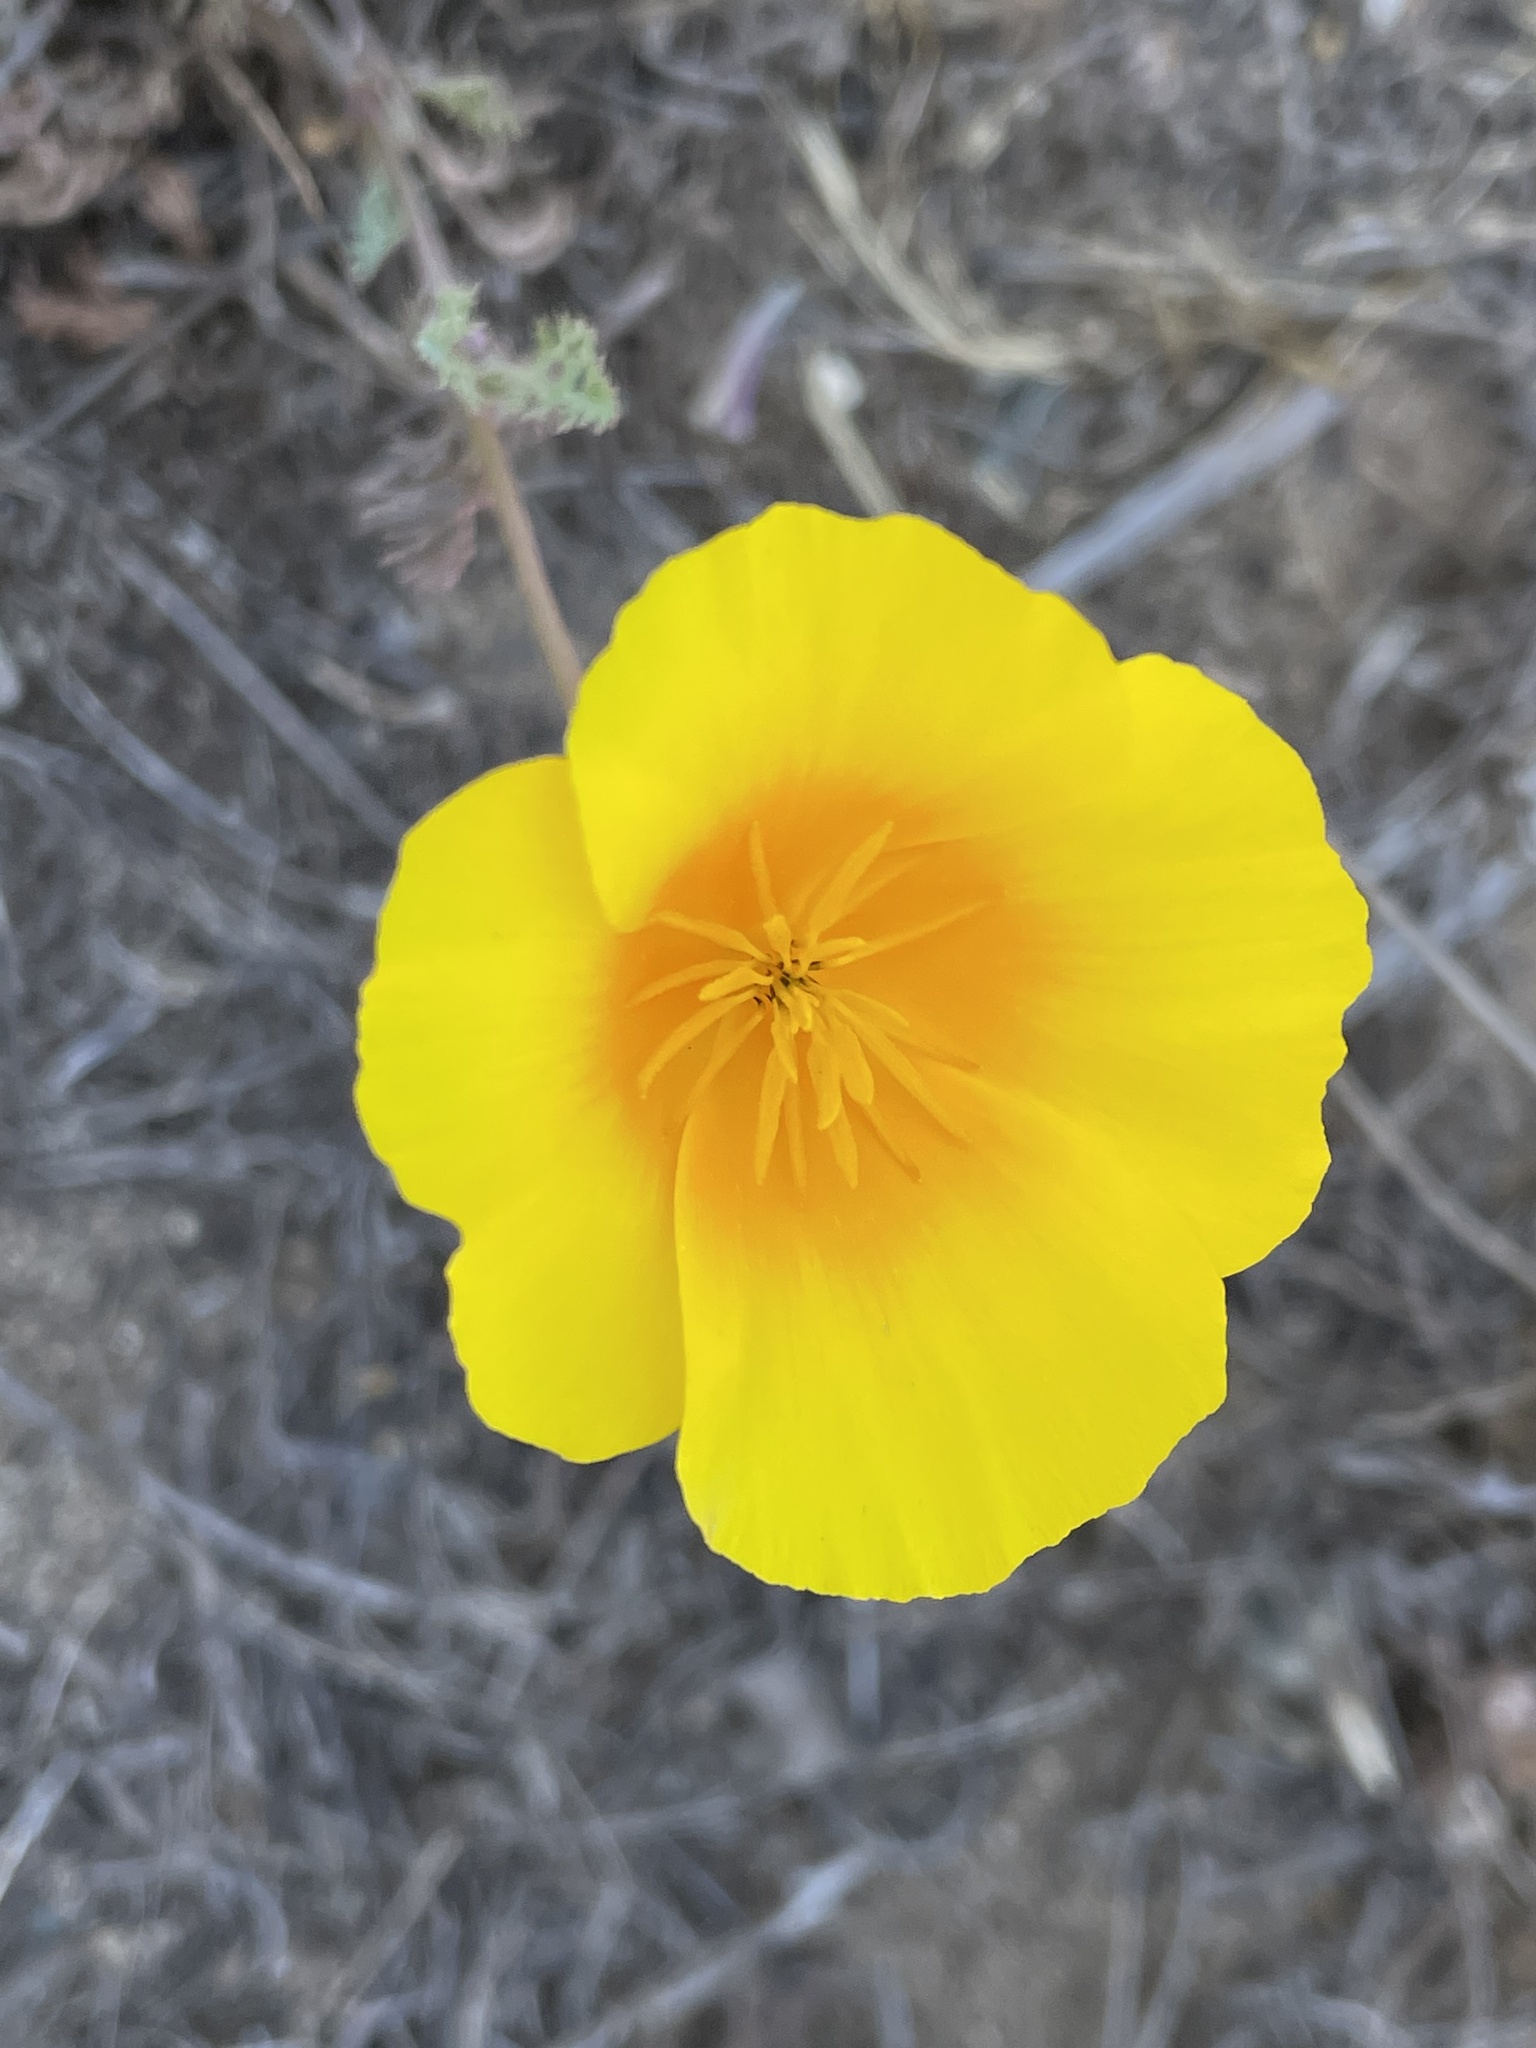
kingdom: Plantae
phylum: Tracheophyta
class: Magnoliopsida
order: Ranunculales
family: Papaveraceae
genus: Eschscholzia
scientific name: Eschscholzia californica
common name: California poppy
